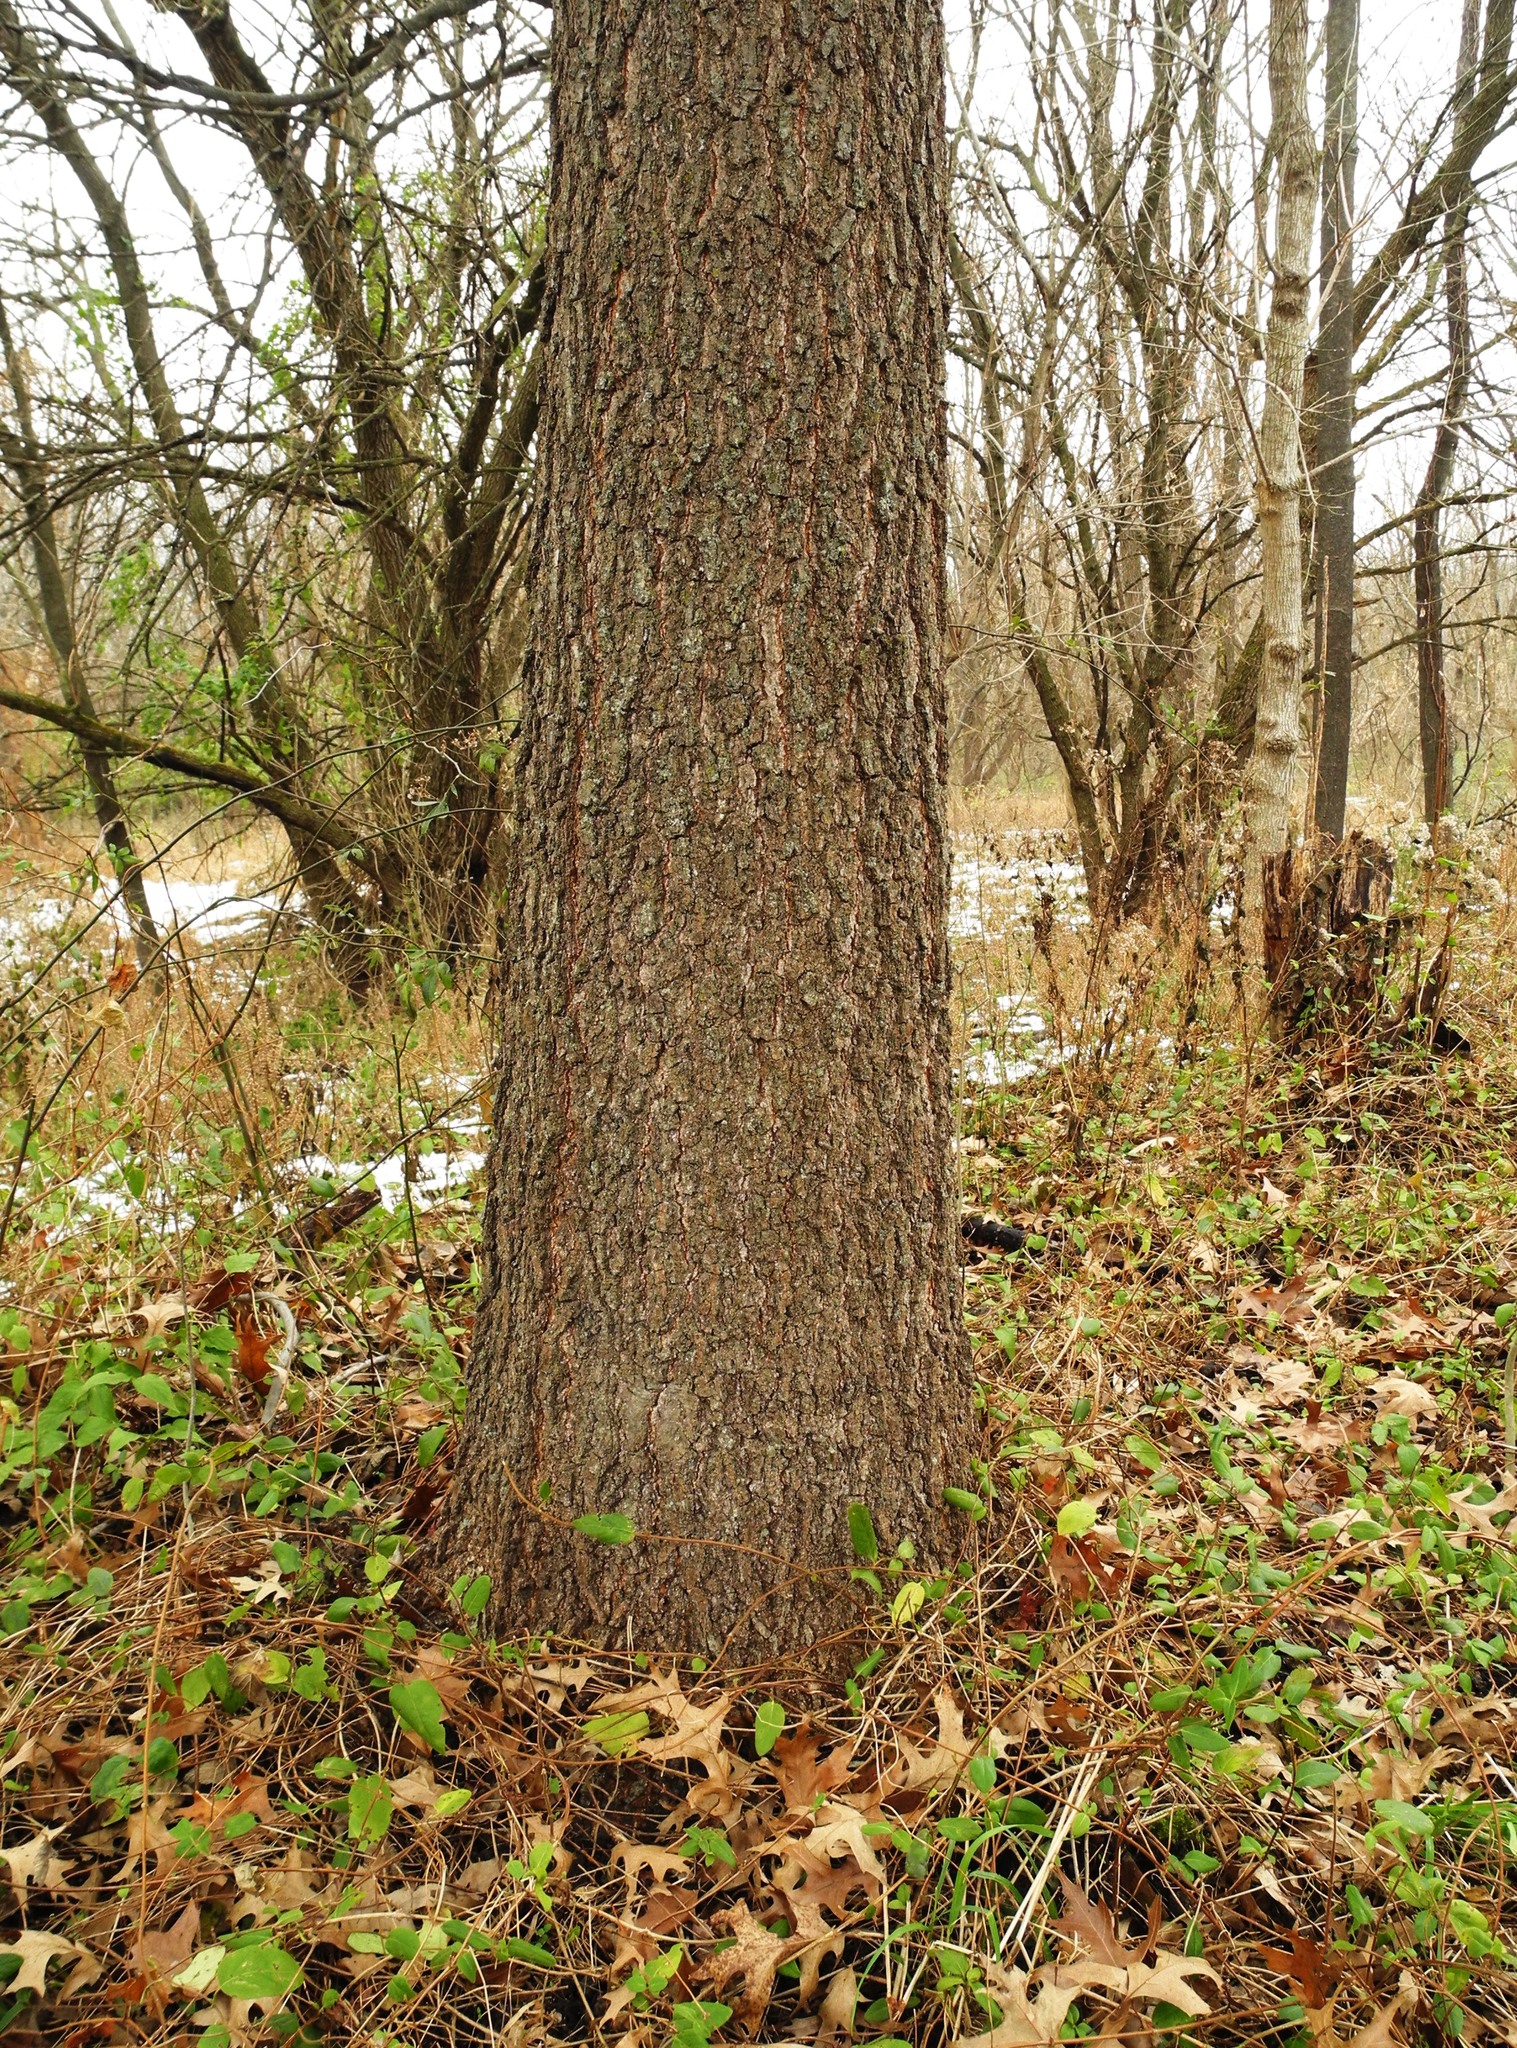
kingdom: Plantae
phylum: Tracheophyta
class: Magnoliopsida
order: Fagales
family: Fagaceae
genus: Quercus
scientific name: Quercus rubra
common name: Red oak
